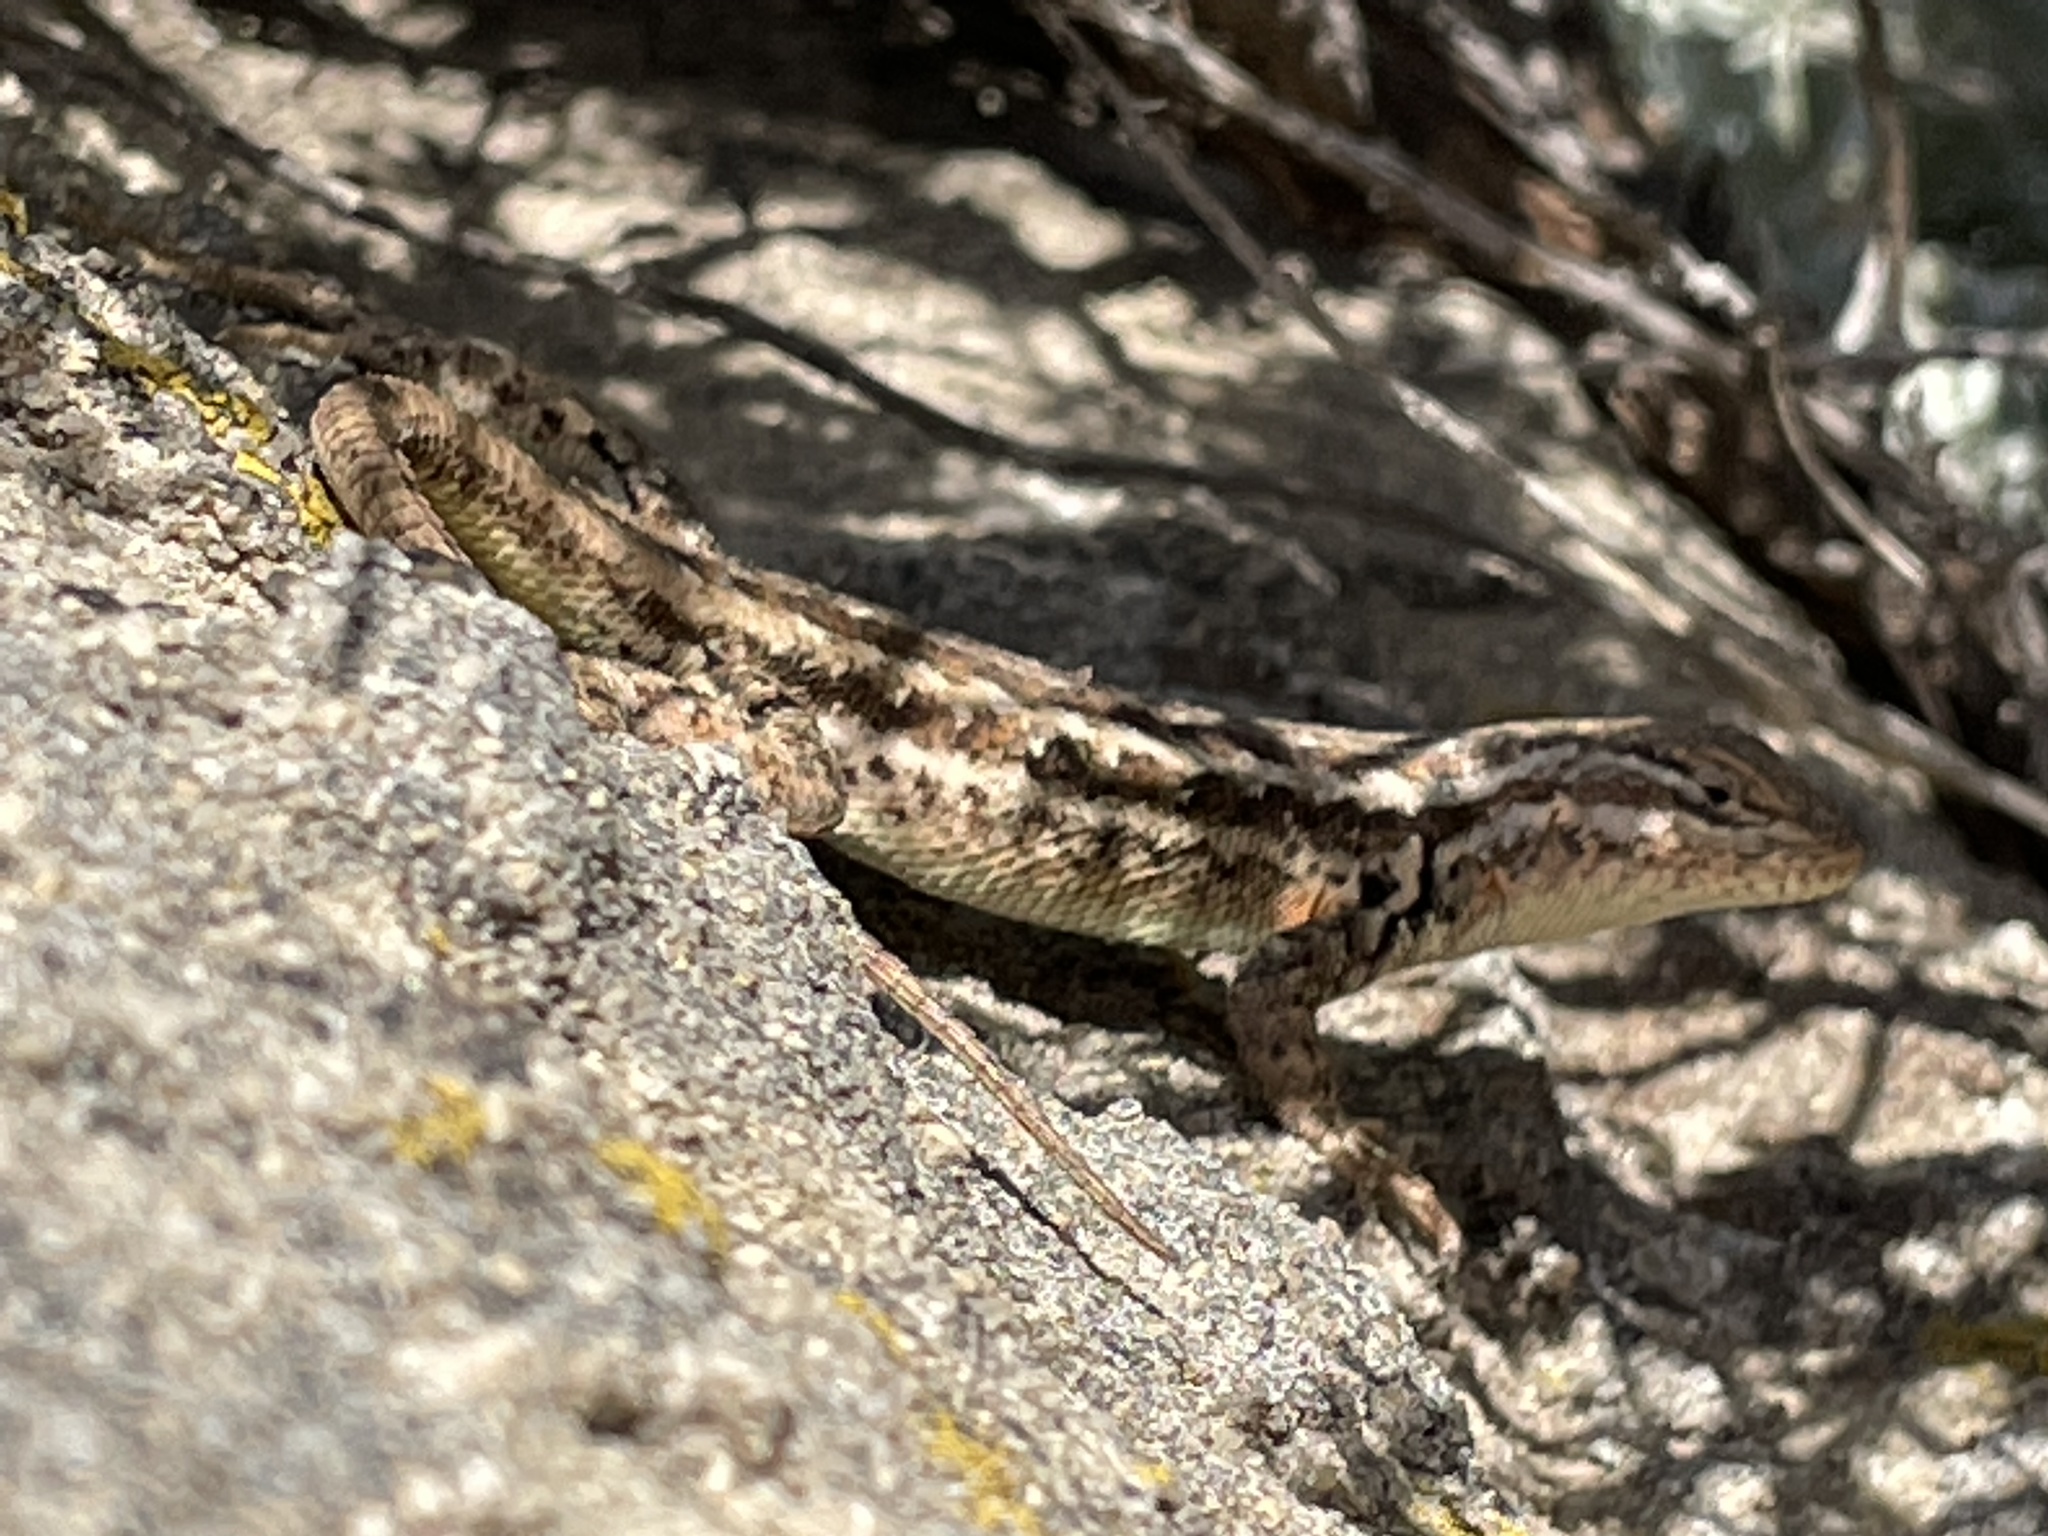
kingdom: Animalia
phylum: Chordata
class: Squamata
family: Phrynosomatidae
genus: Sceloporus
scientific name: Sceloporus graciosus
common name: Sagebrush lizard
